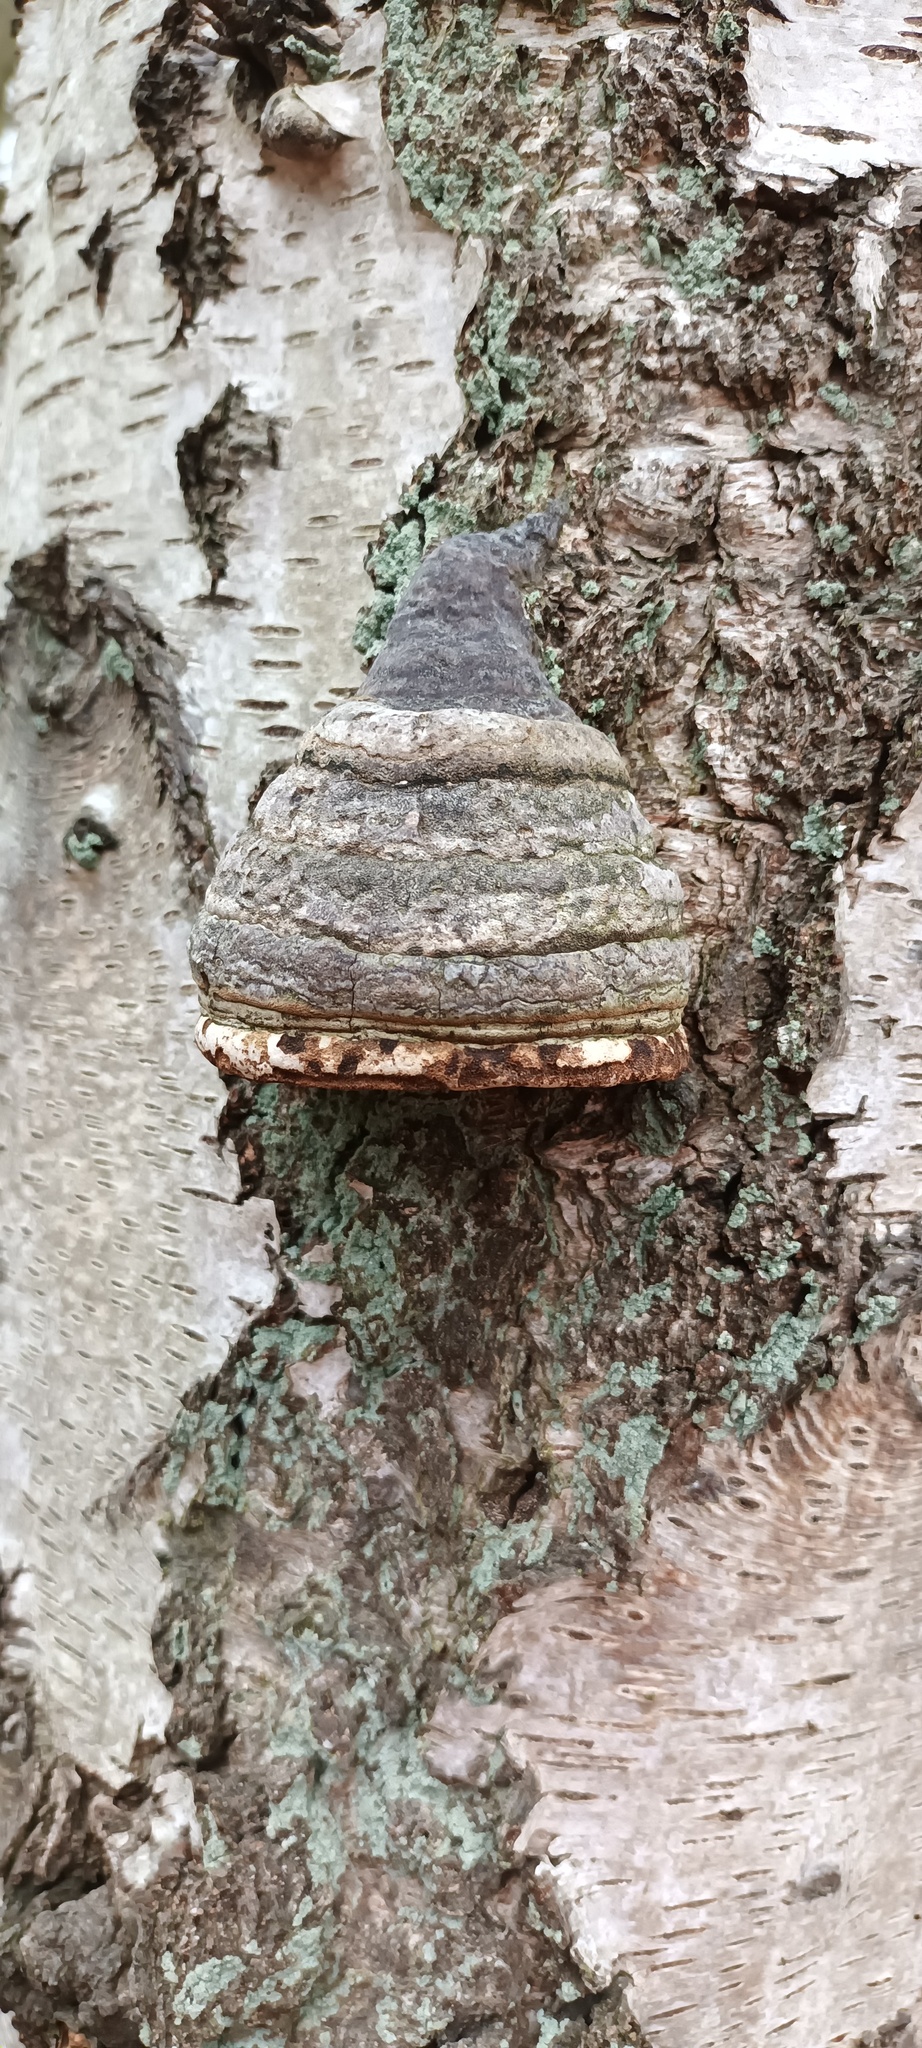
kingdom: Fungi
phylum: Basidiomycota
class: Agaricomycetes
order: Polyporales
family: Polyporaceae
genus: Fomes
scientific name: Fomes fomentarius
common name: Hoof fungus
